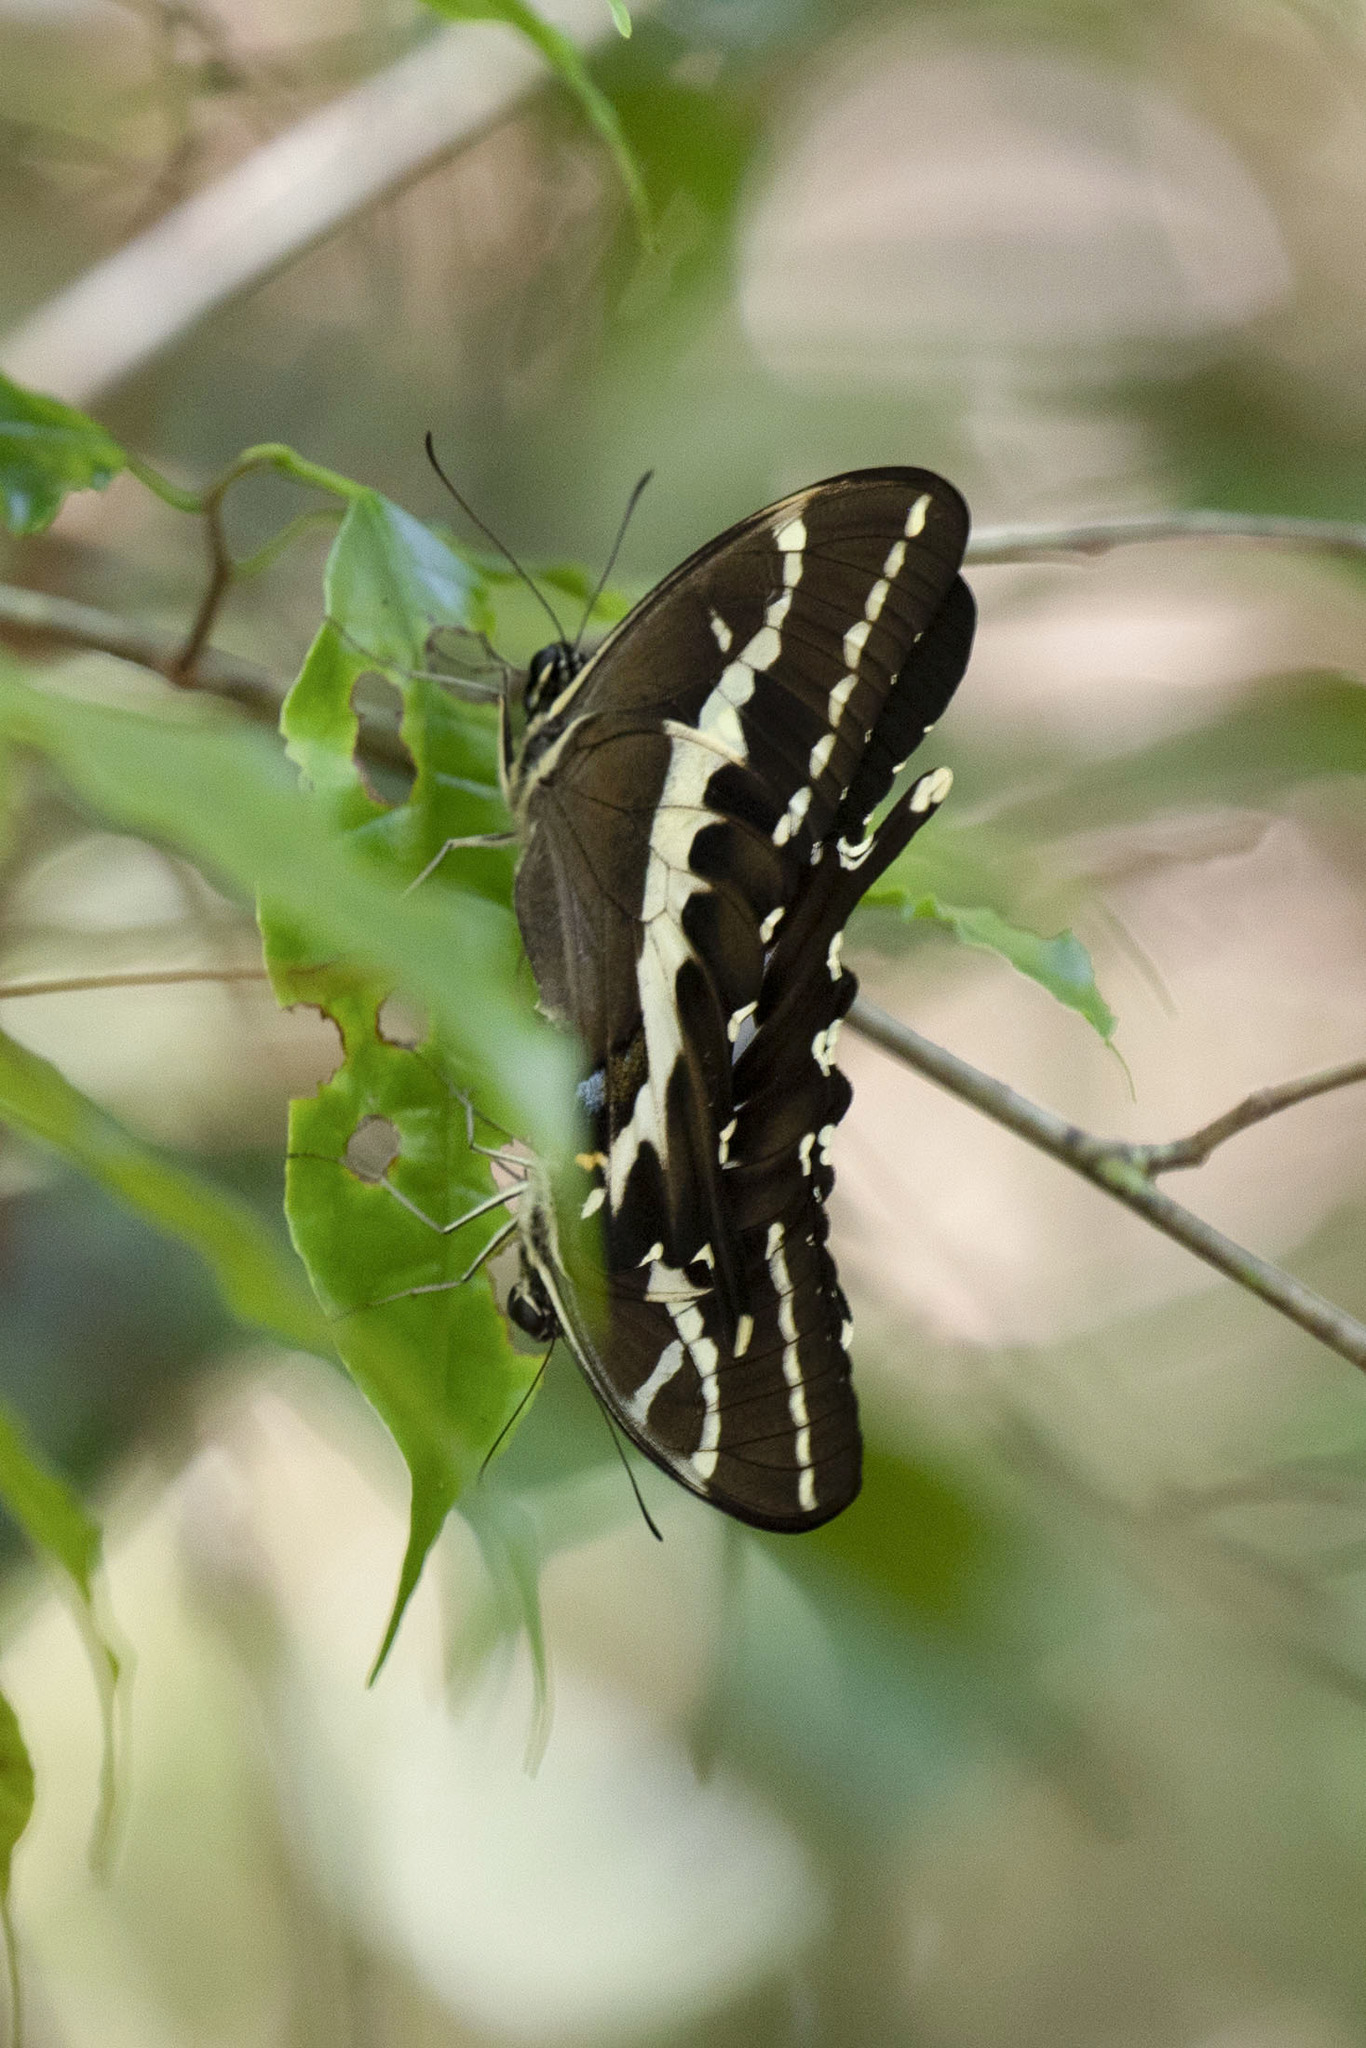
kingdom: Animalia
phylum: Arthropoda
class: Insecta
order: Lepidoptera
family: Papilionidae
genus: Papilio
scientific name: Papilio delalandei
